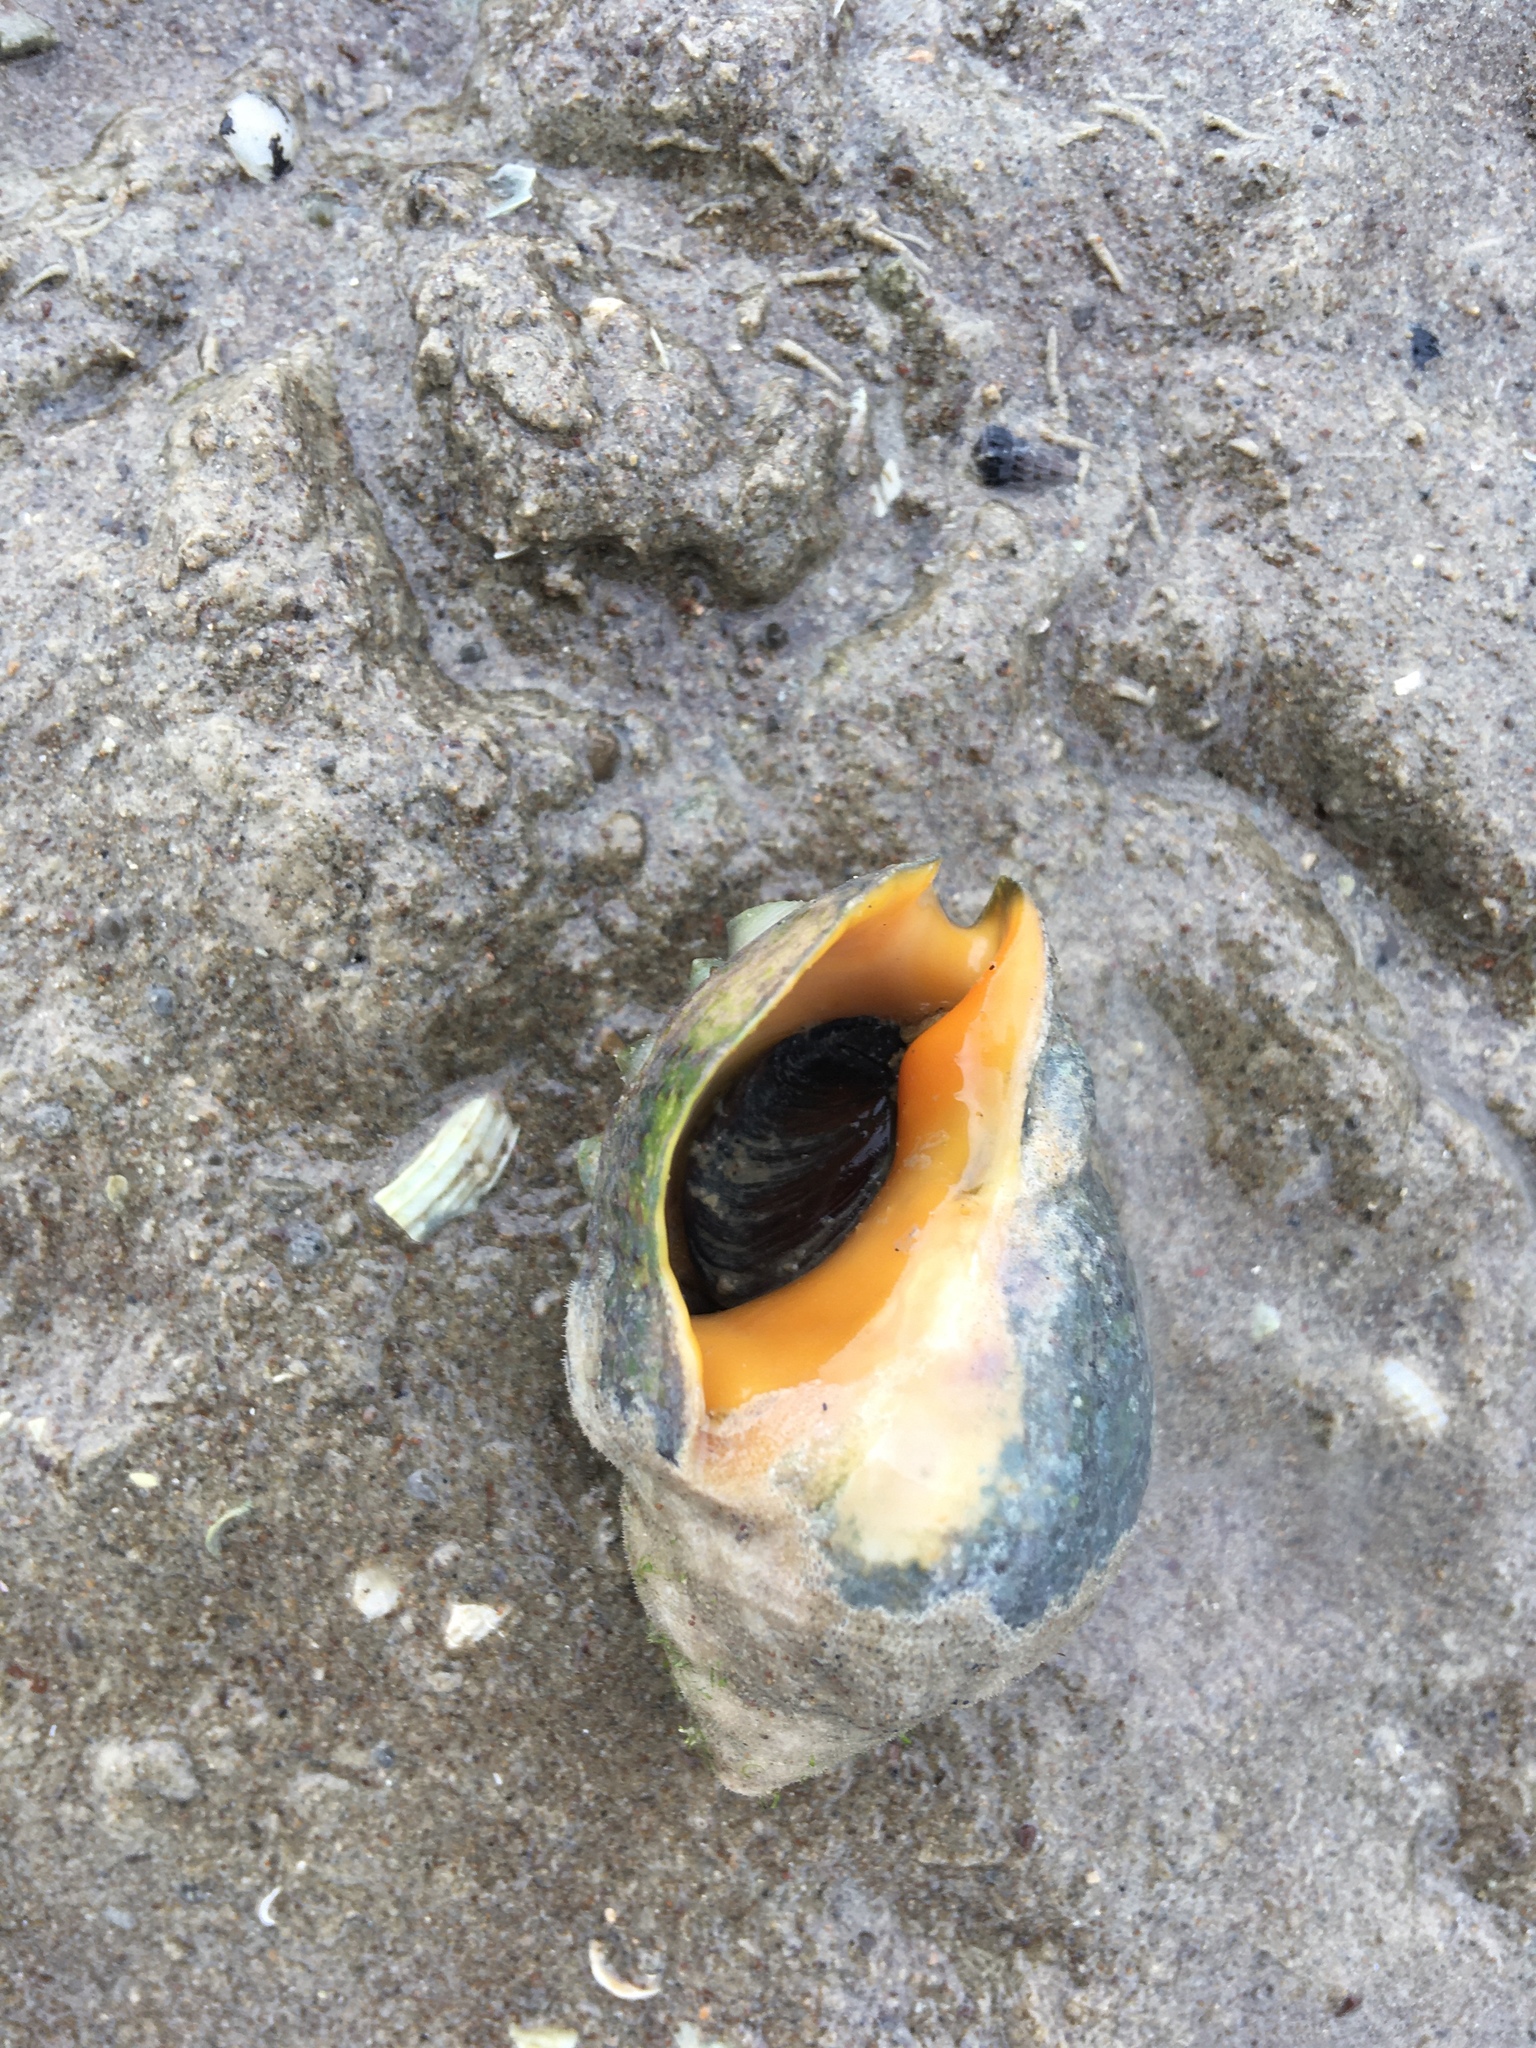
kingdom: Animalia
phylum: Mollusca
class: Gastropoda
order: Neogastropoda
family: Cominellidae
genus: Cominella
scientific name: Cominella adspersa
